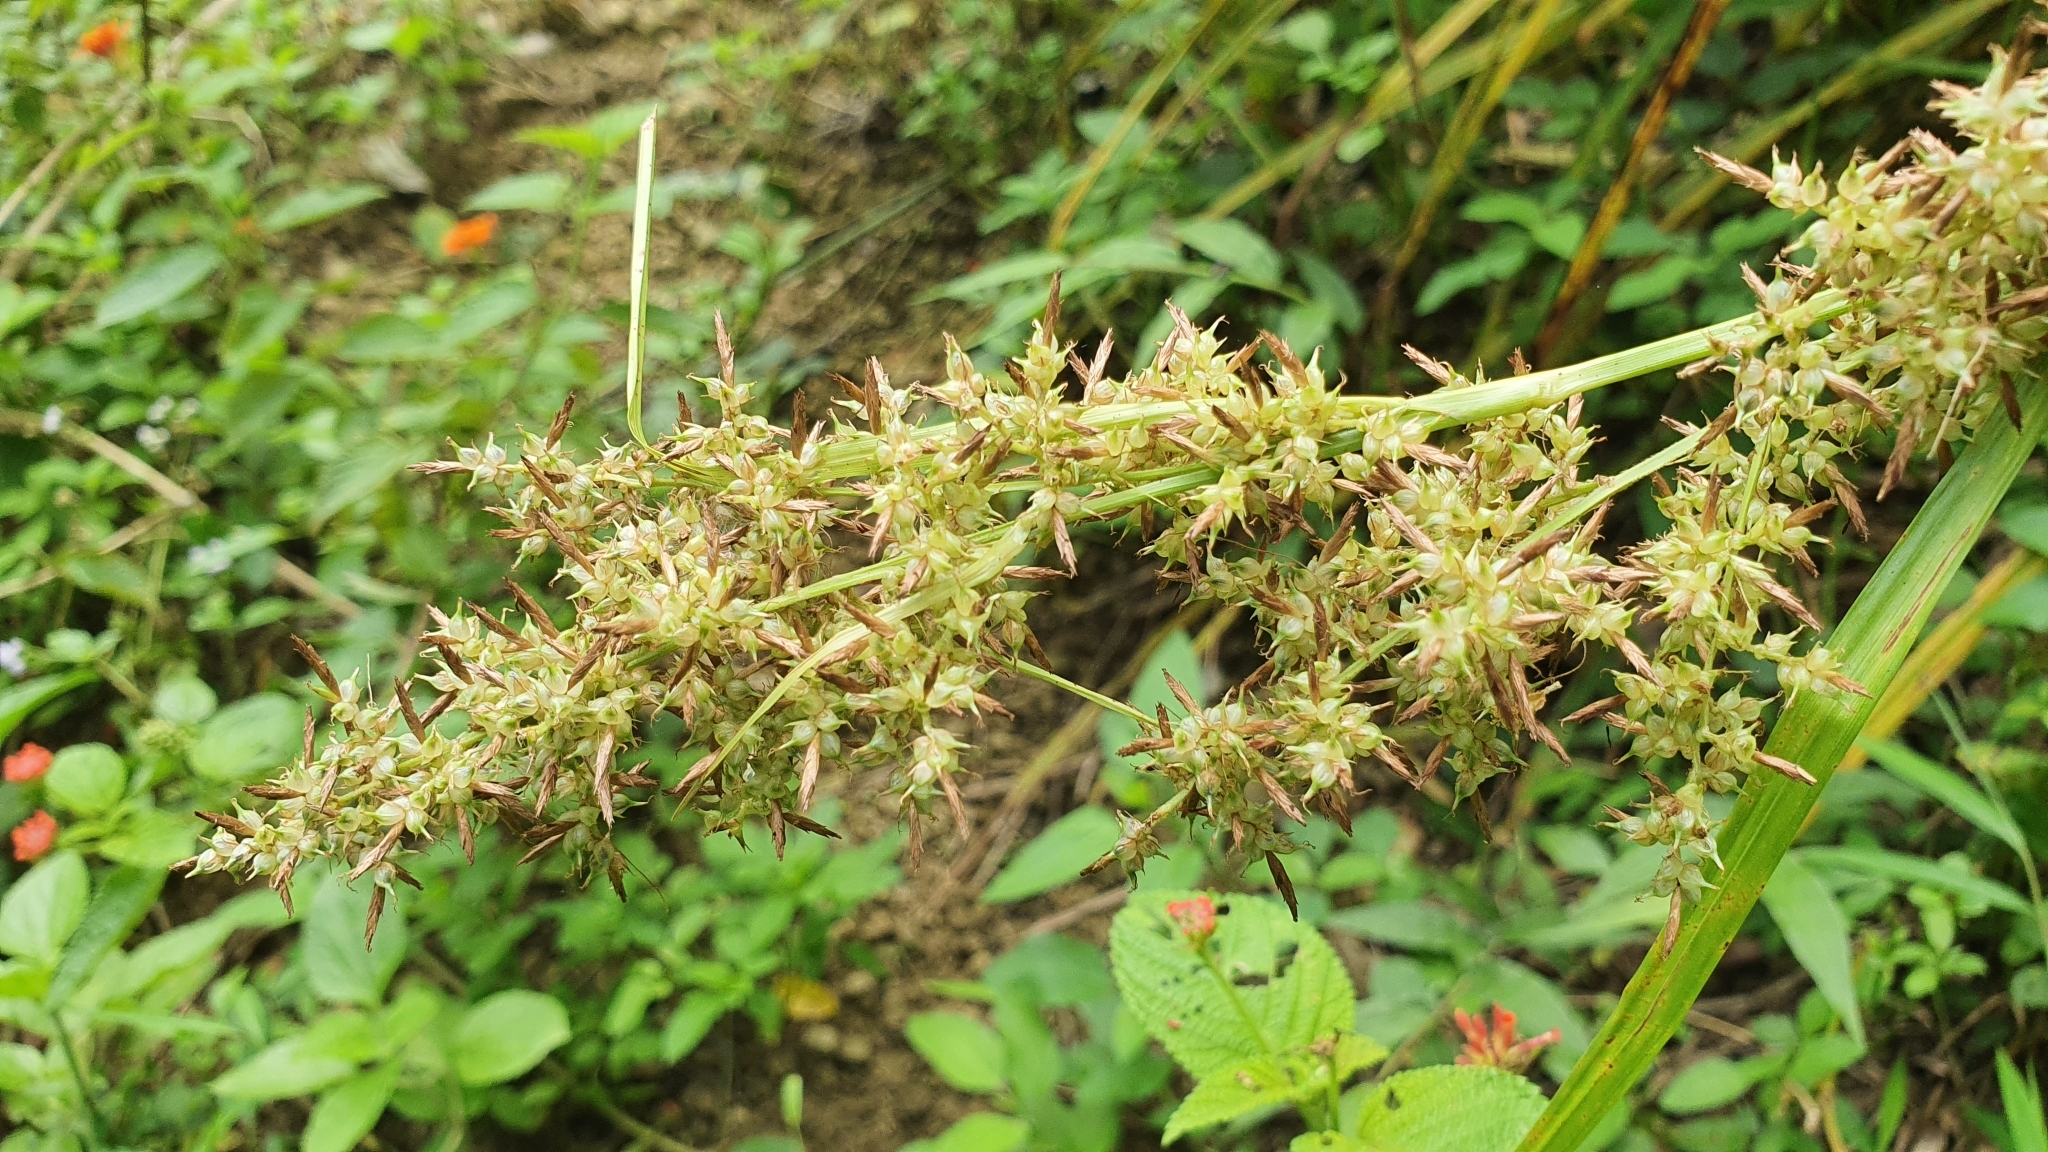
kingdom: Plantae
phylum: Tracheophyta
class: Liliopsida
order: Poales
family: Cyperaceae
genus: Carex
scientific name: Carex cruciata
